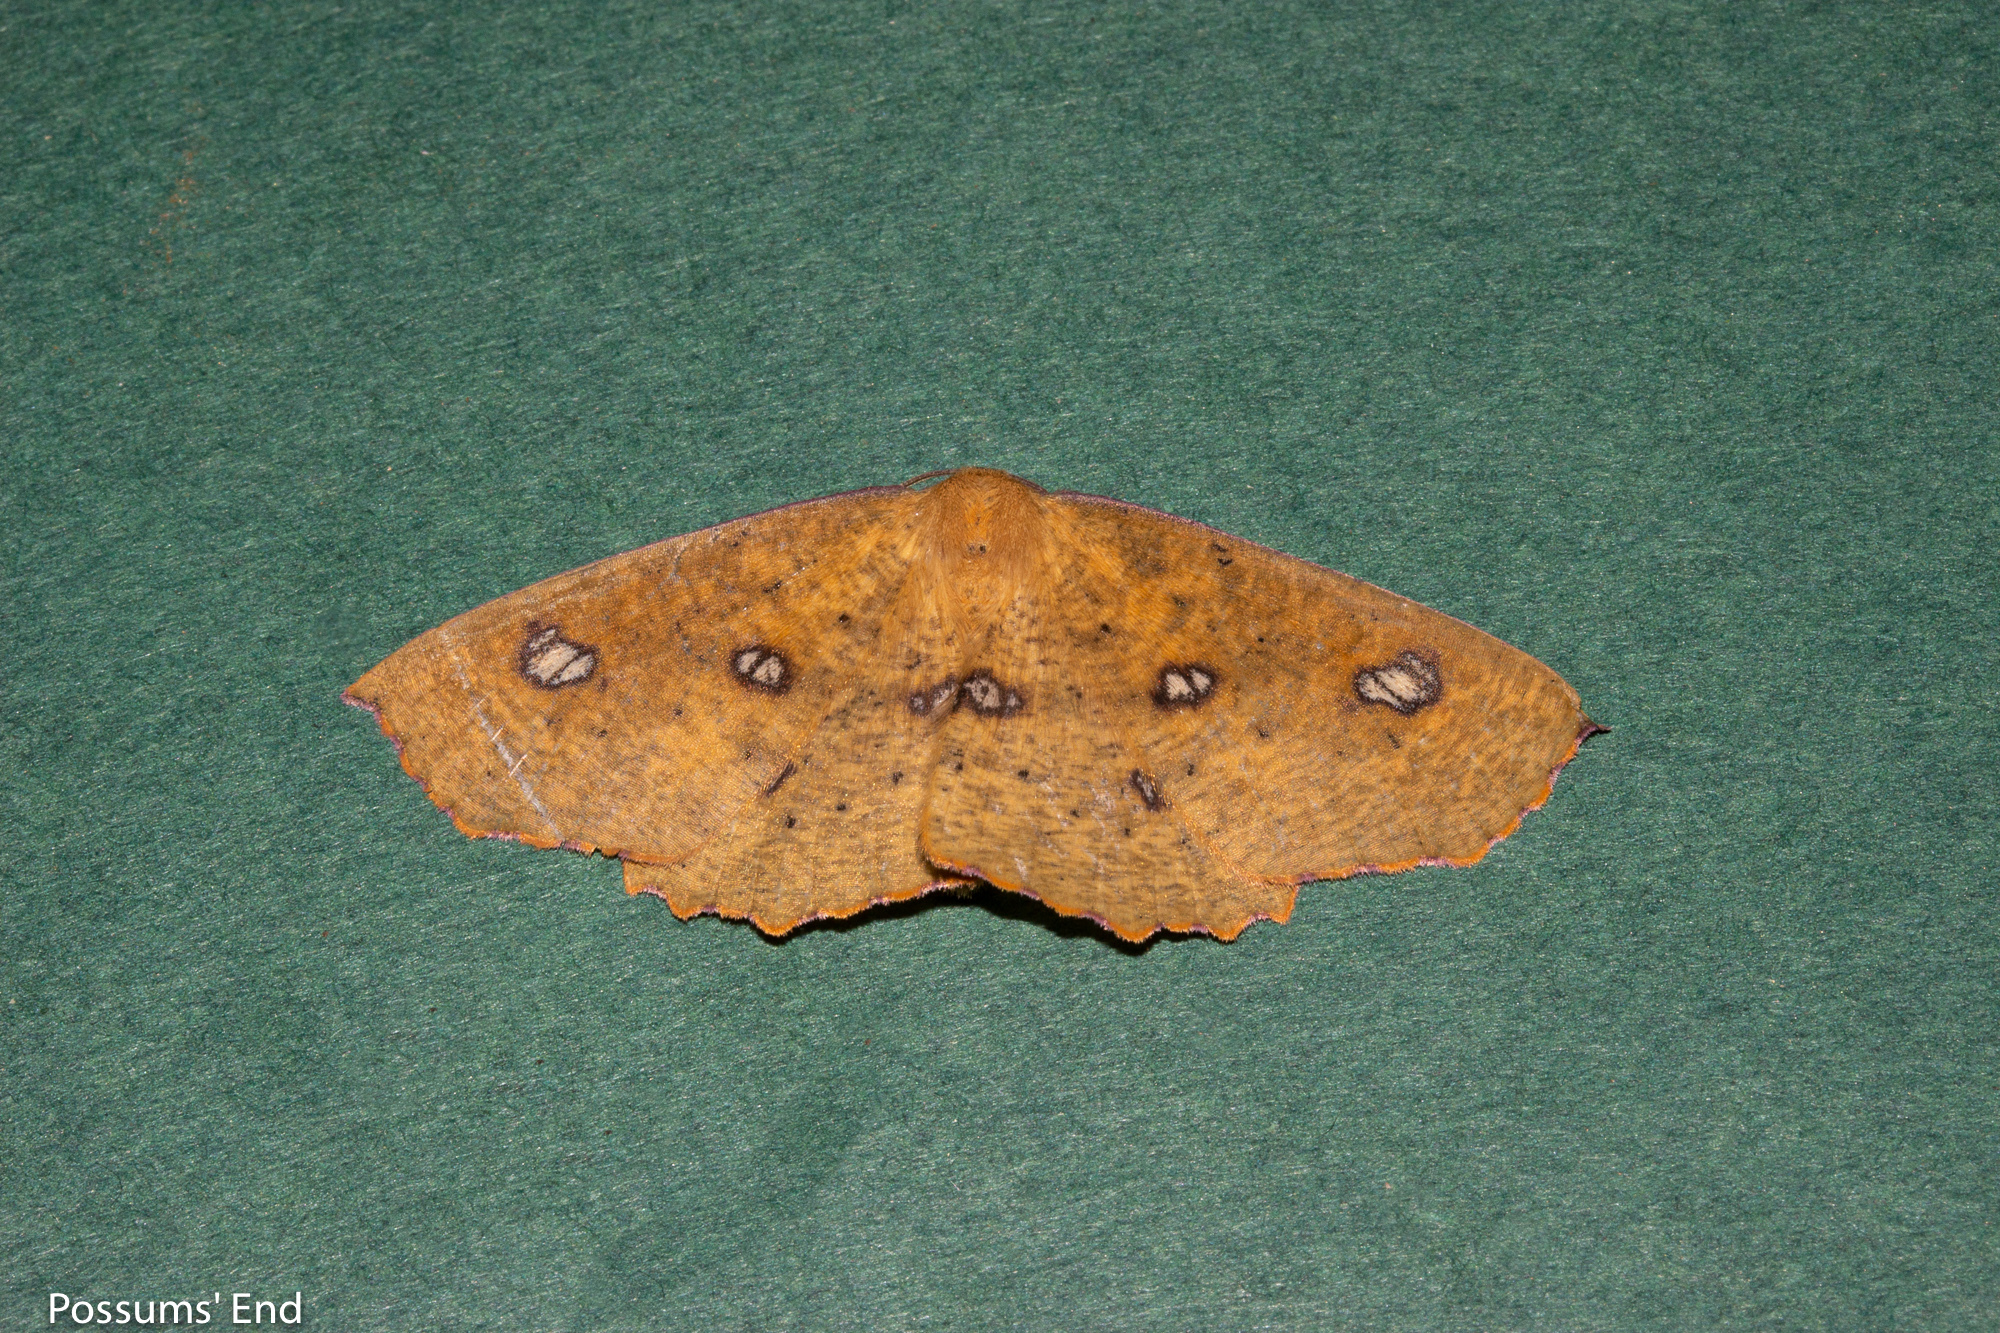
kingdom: Animalia
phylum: Arthropoda
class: Insecta
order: Lepidoptera
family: Geometridae
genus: Xyridacma
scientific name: Xyridacma alectoraria
